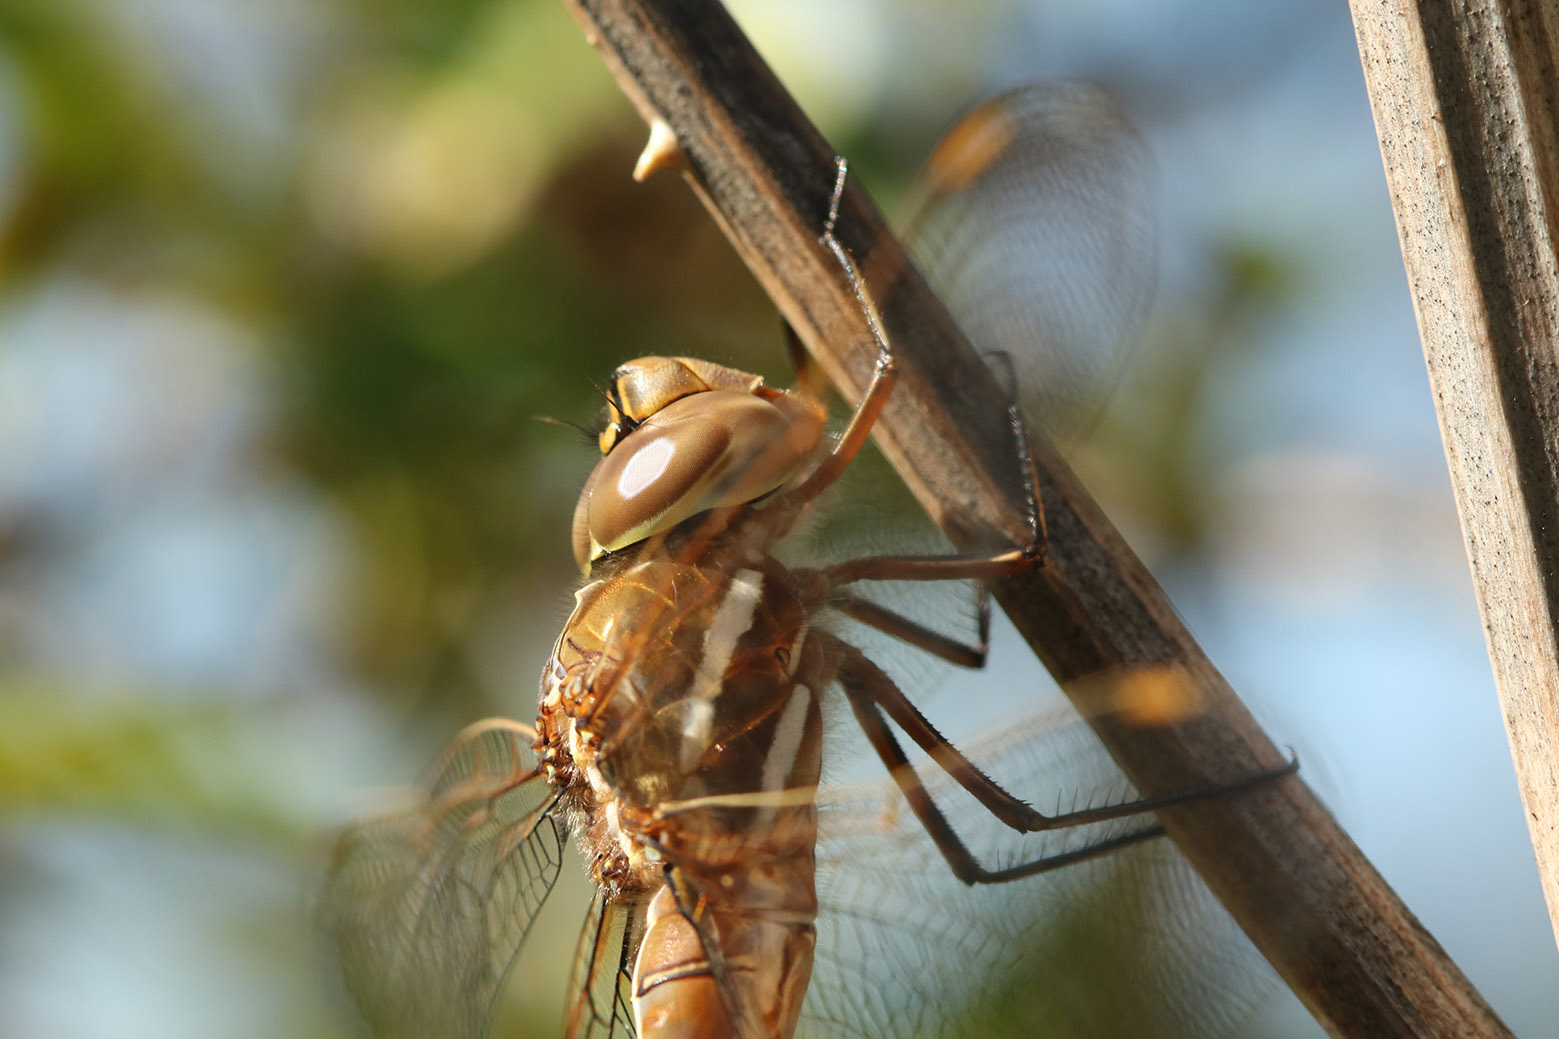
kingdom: Animalia
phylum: Arthropoda
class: Insecta
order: Odonata
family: Aeshnidae
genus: Rhionaeschna
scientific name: Rhionaeschna bonariensis
